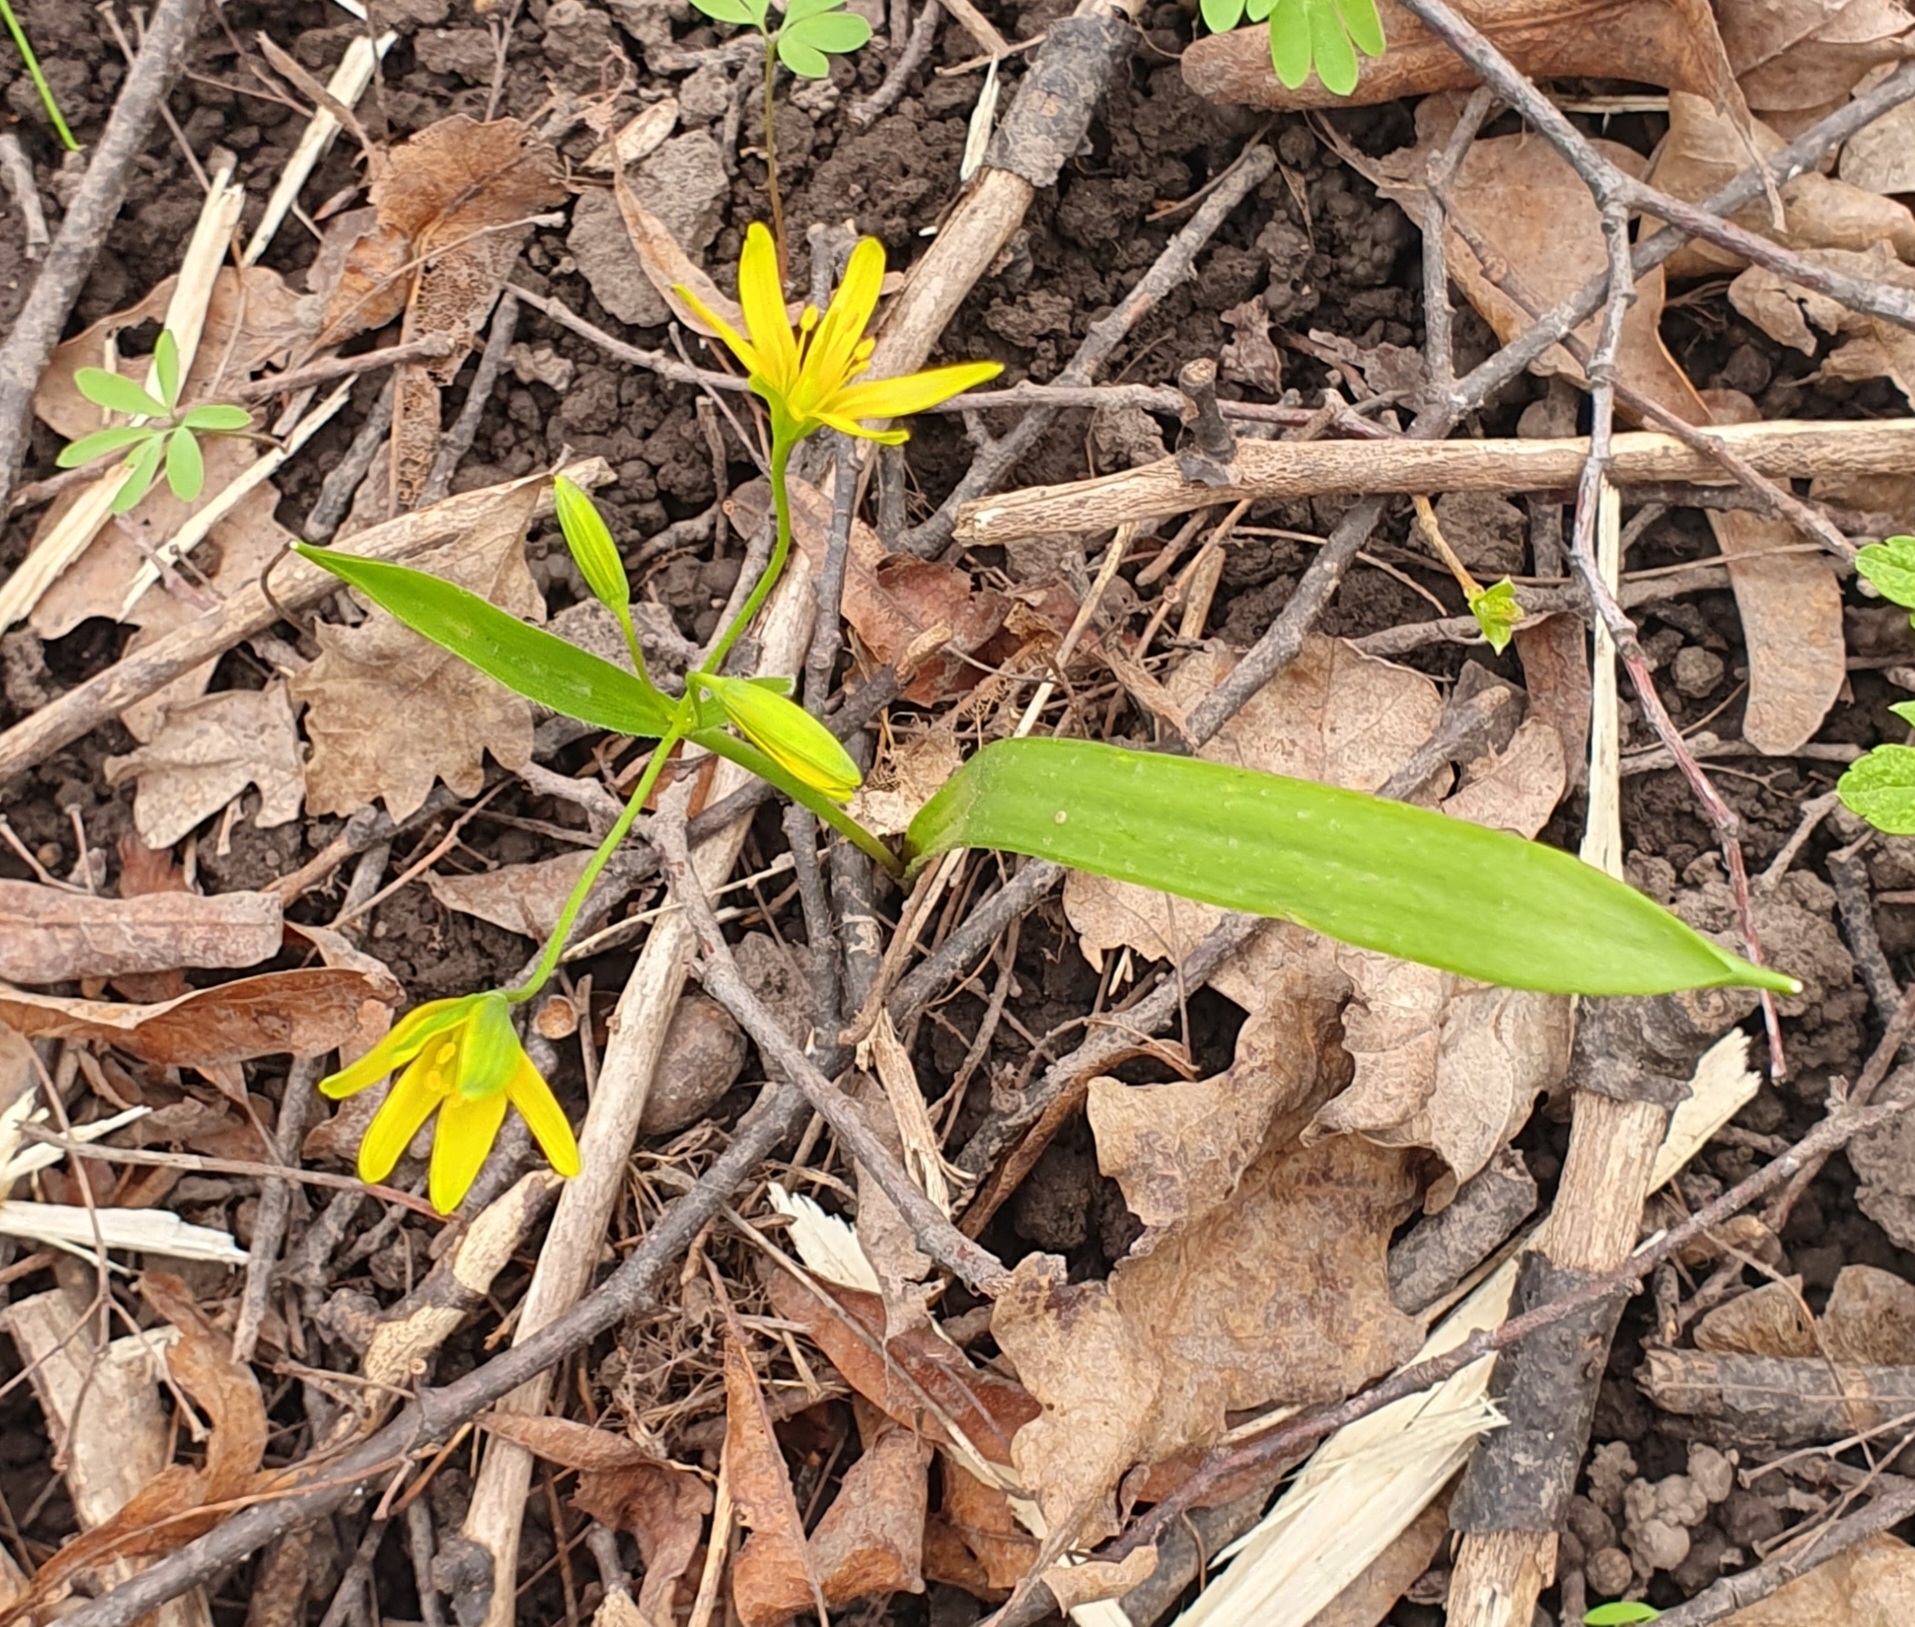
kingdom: Plantae
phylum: Tracheophyta
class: Liliopsida
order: Liliales
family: Liliaceae
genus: Gagea
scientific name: Gagea lutea
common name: Yellow star-of-bethlehem
